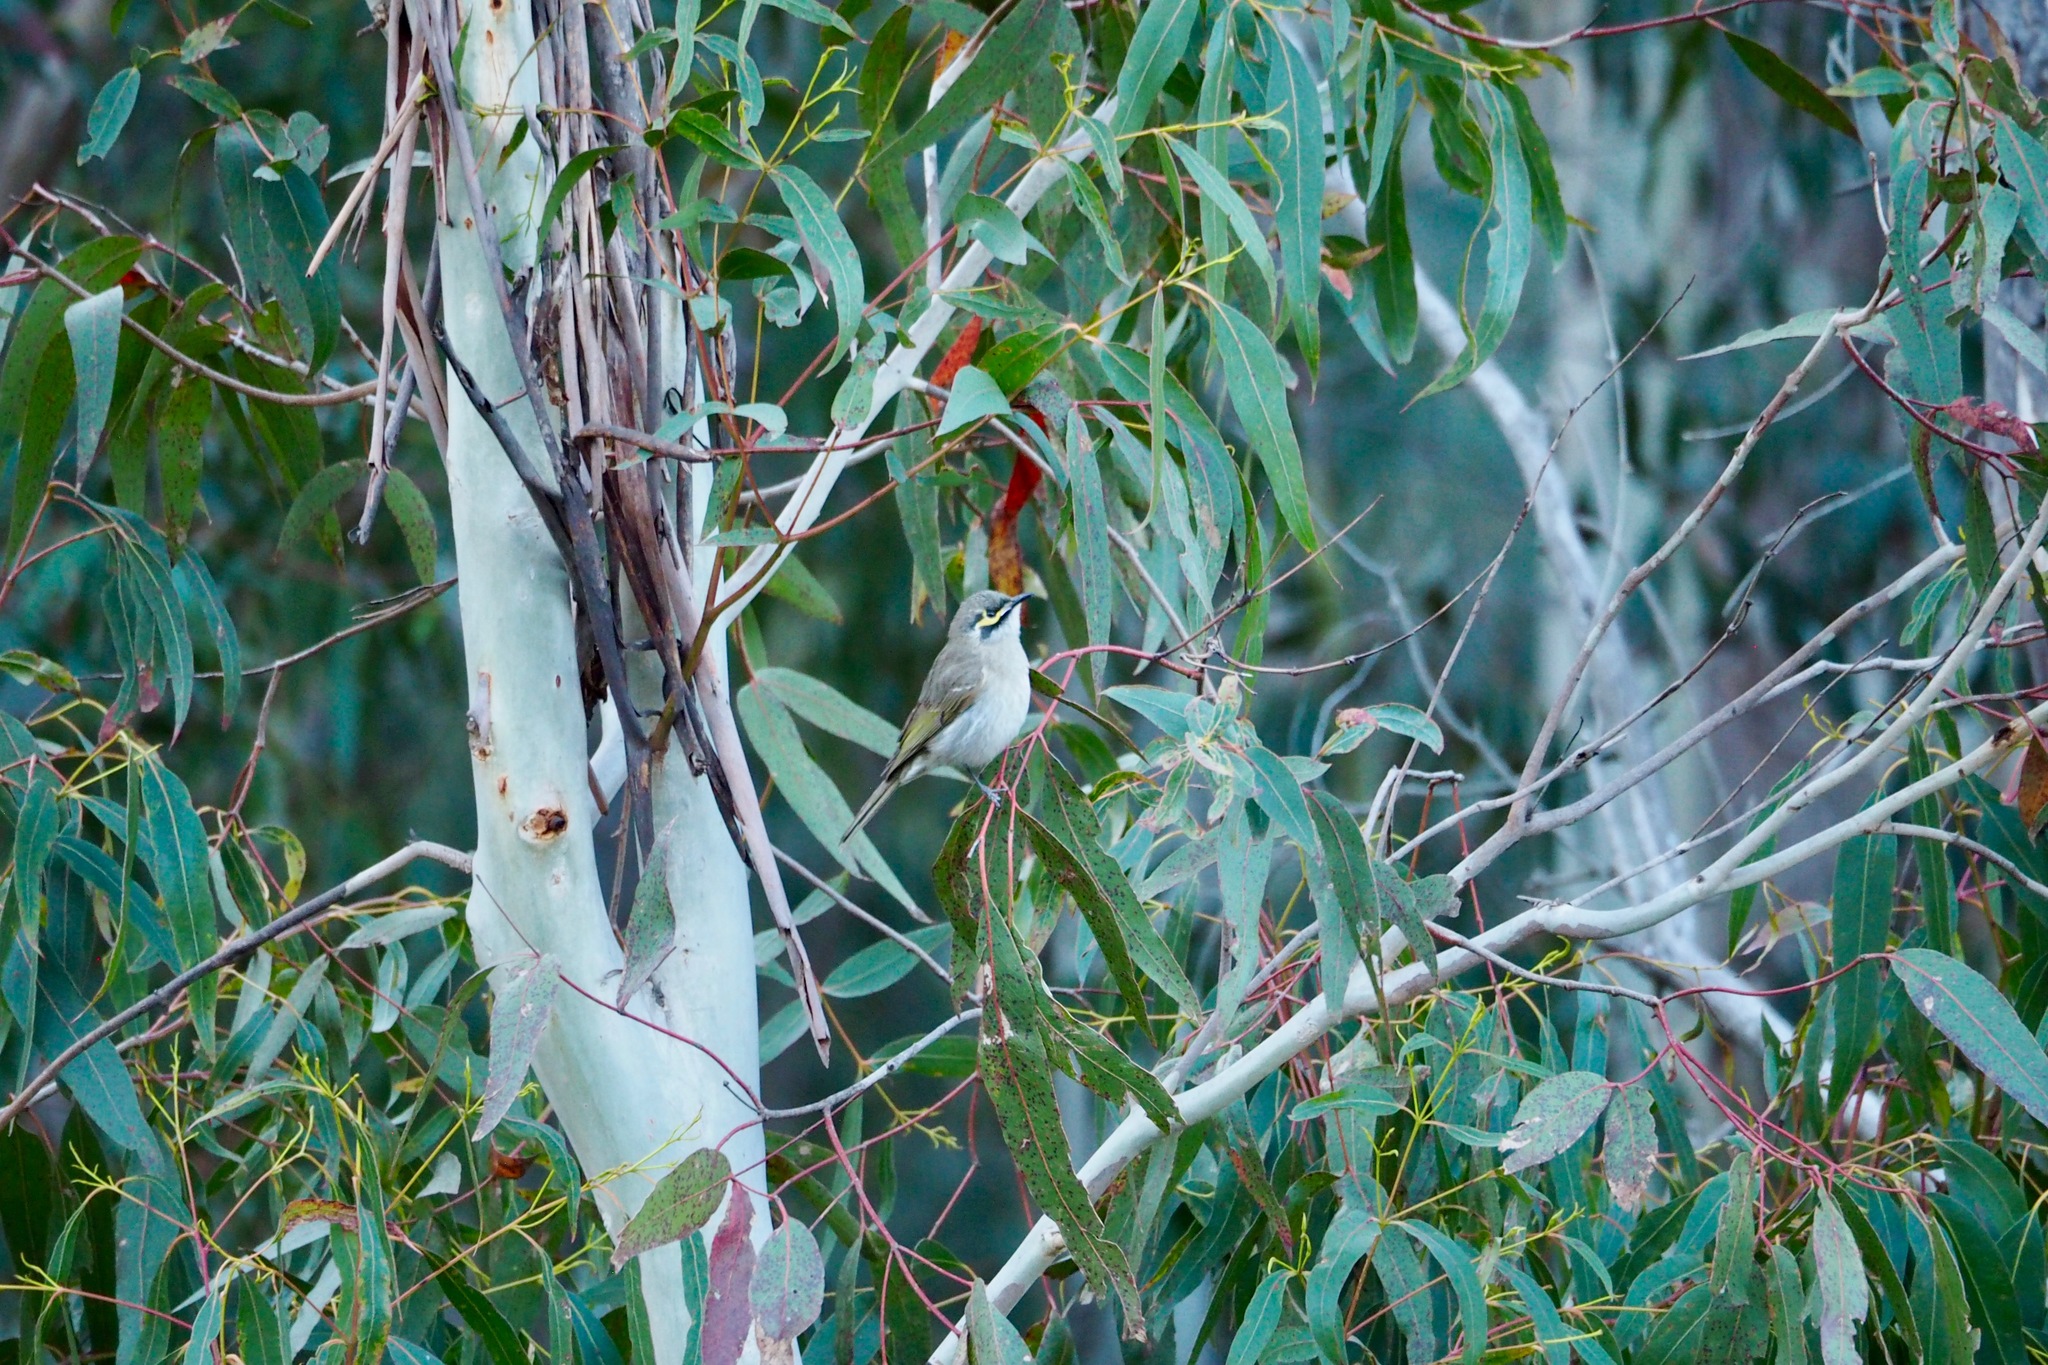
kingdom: Animalia
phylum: Chordata
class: Aves
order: Passeriformes
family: Meliphagidae
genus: Caligavis
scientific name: Caligavis chrysops
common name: Yellow-faced honeyeater
